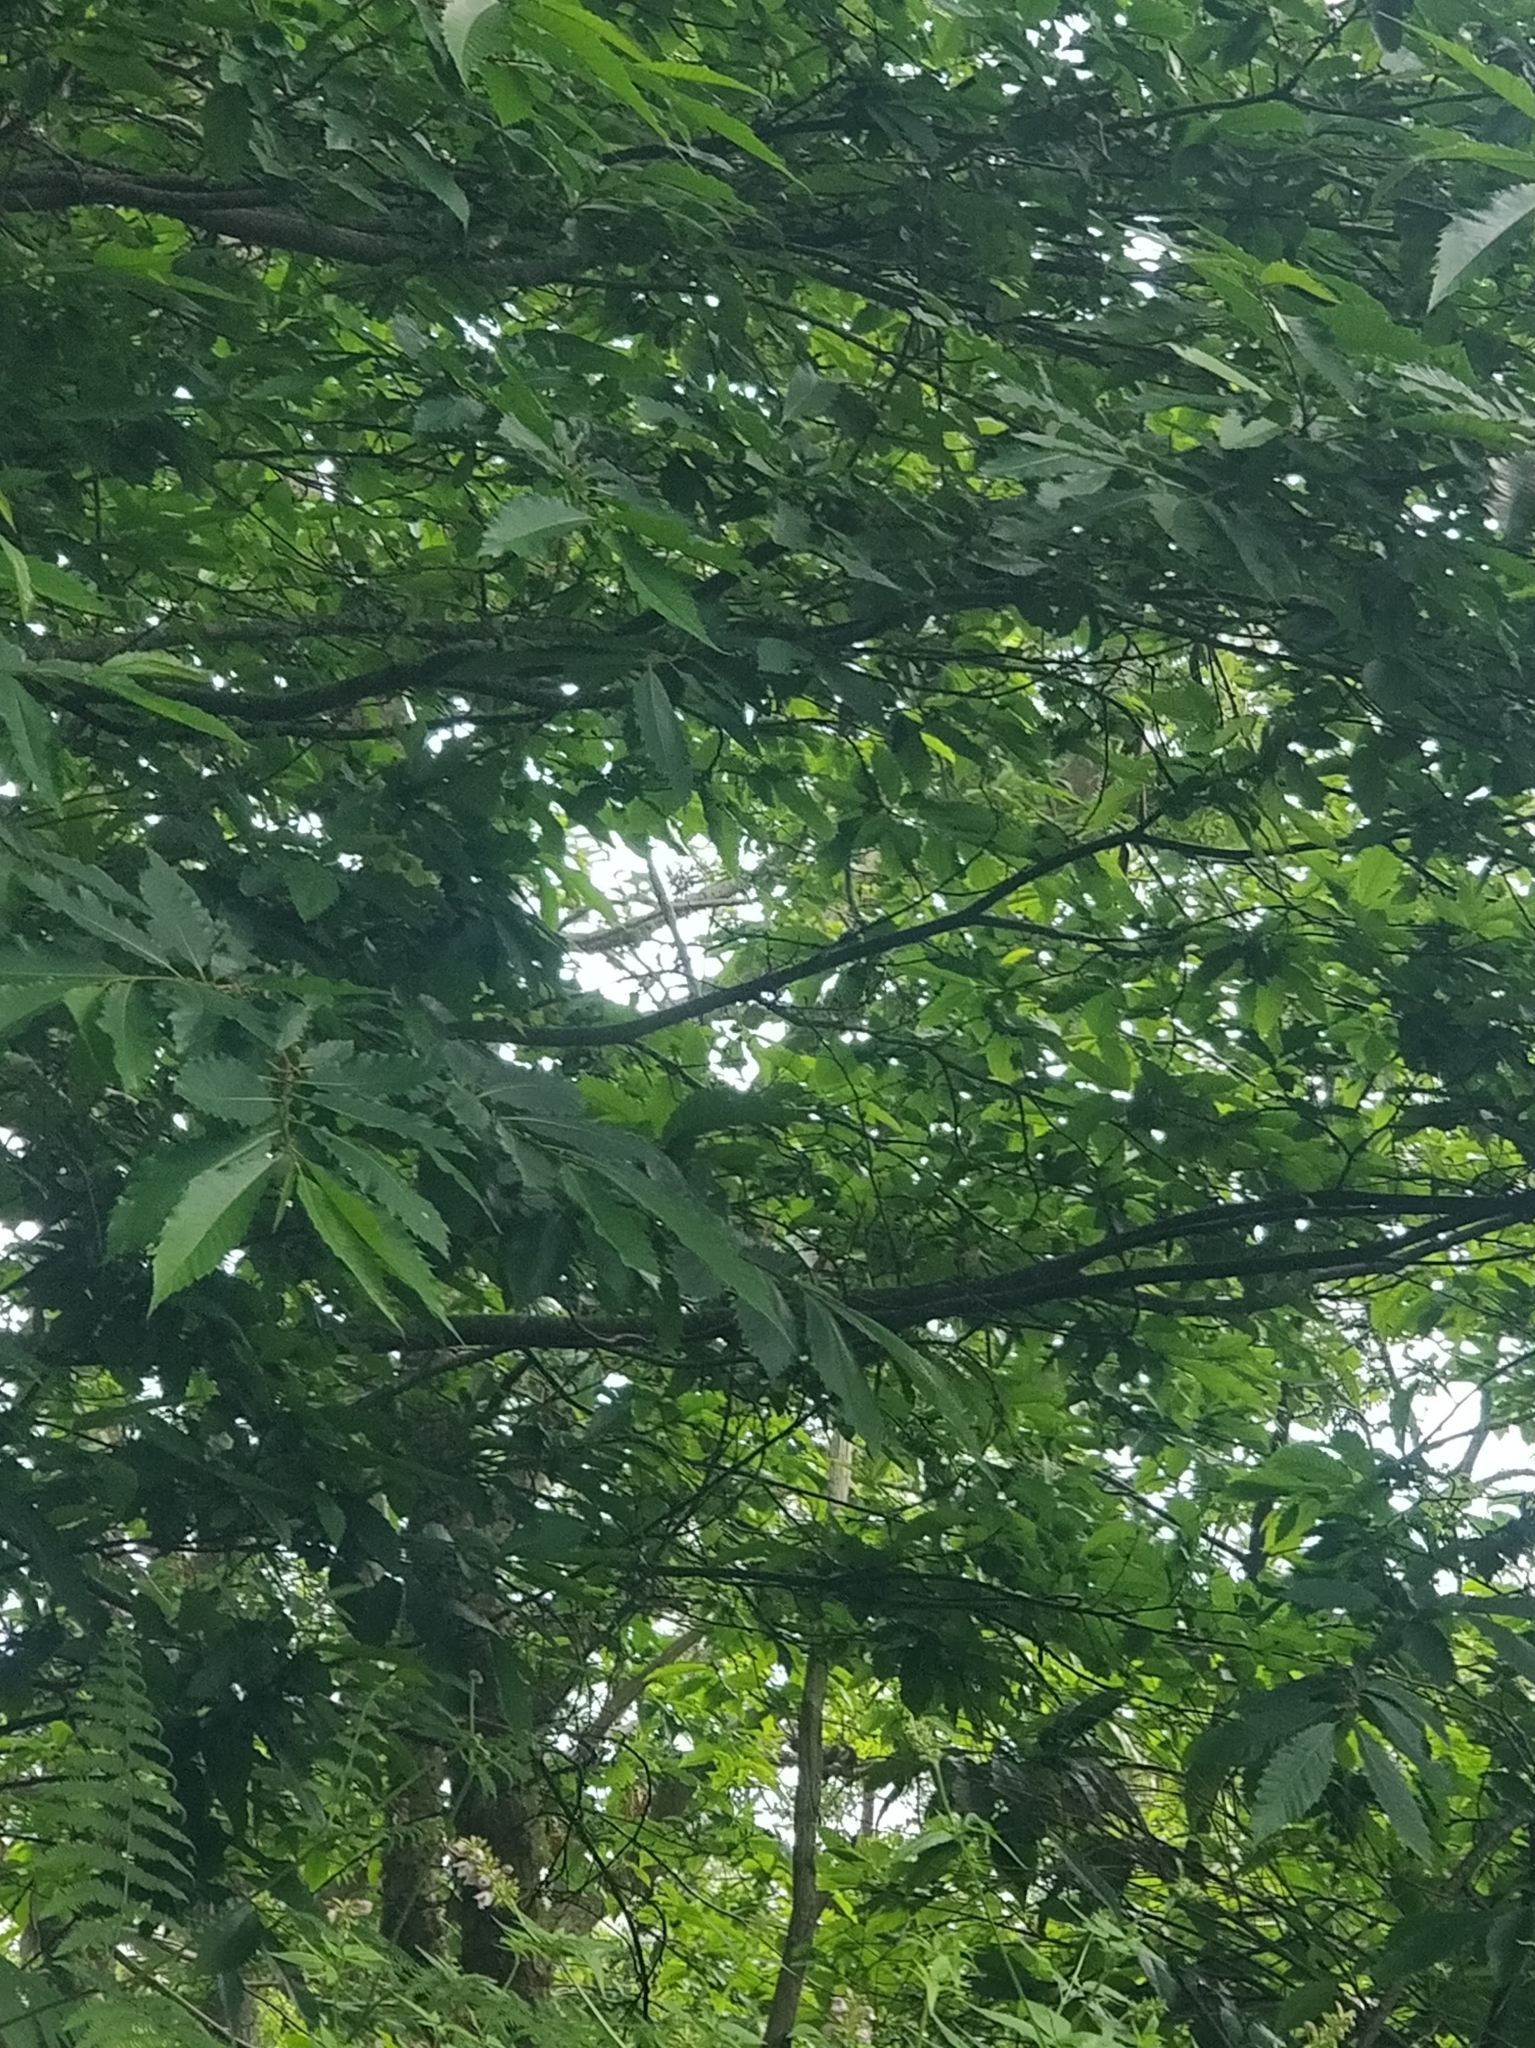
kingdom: Plantae
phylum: Tracheophyta
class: Magnoliopsida
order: Fagales
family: Fagaceae
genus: Castanea
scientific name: Castanea sativa
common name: Sweet chestnut
